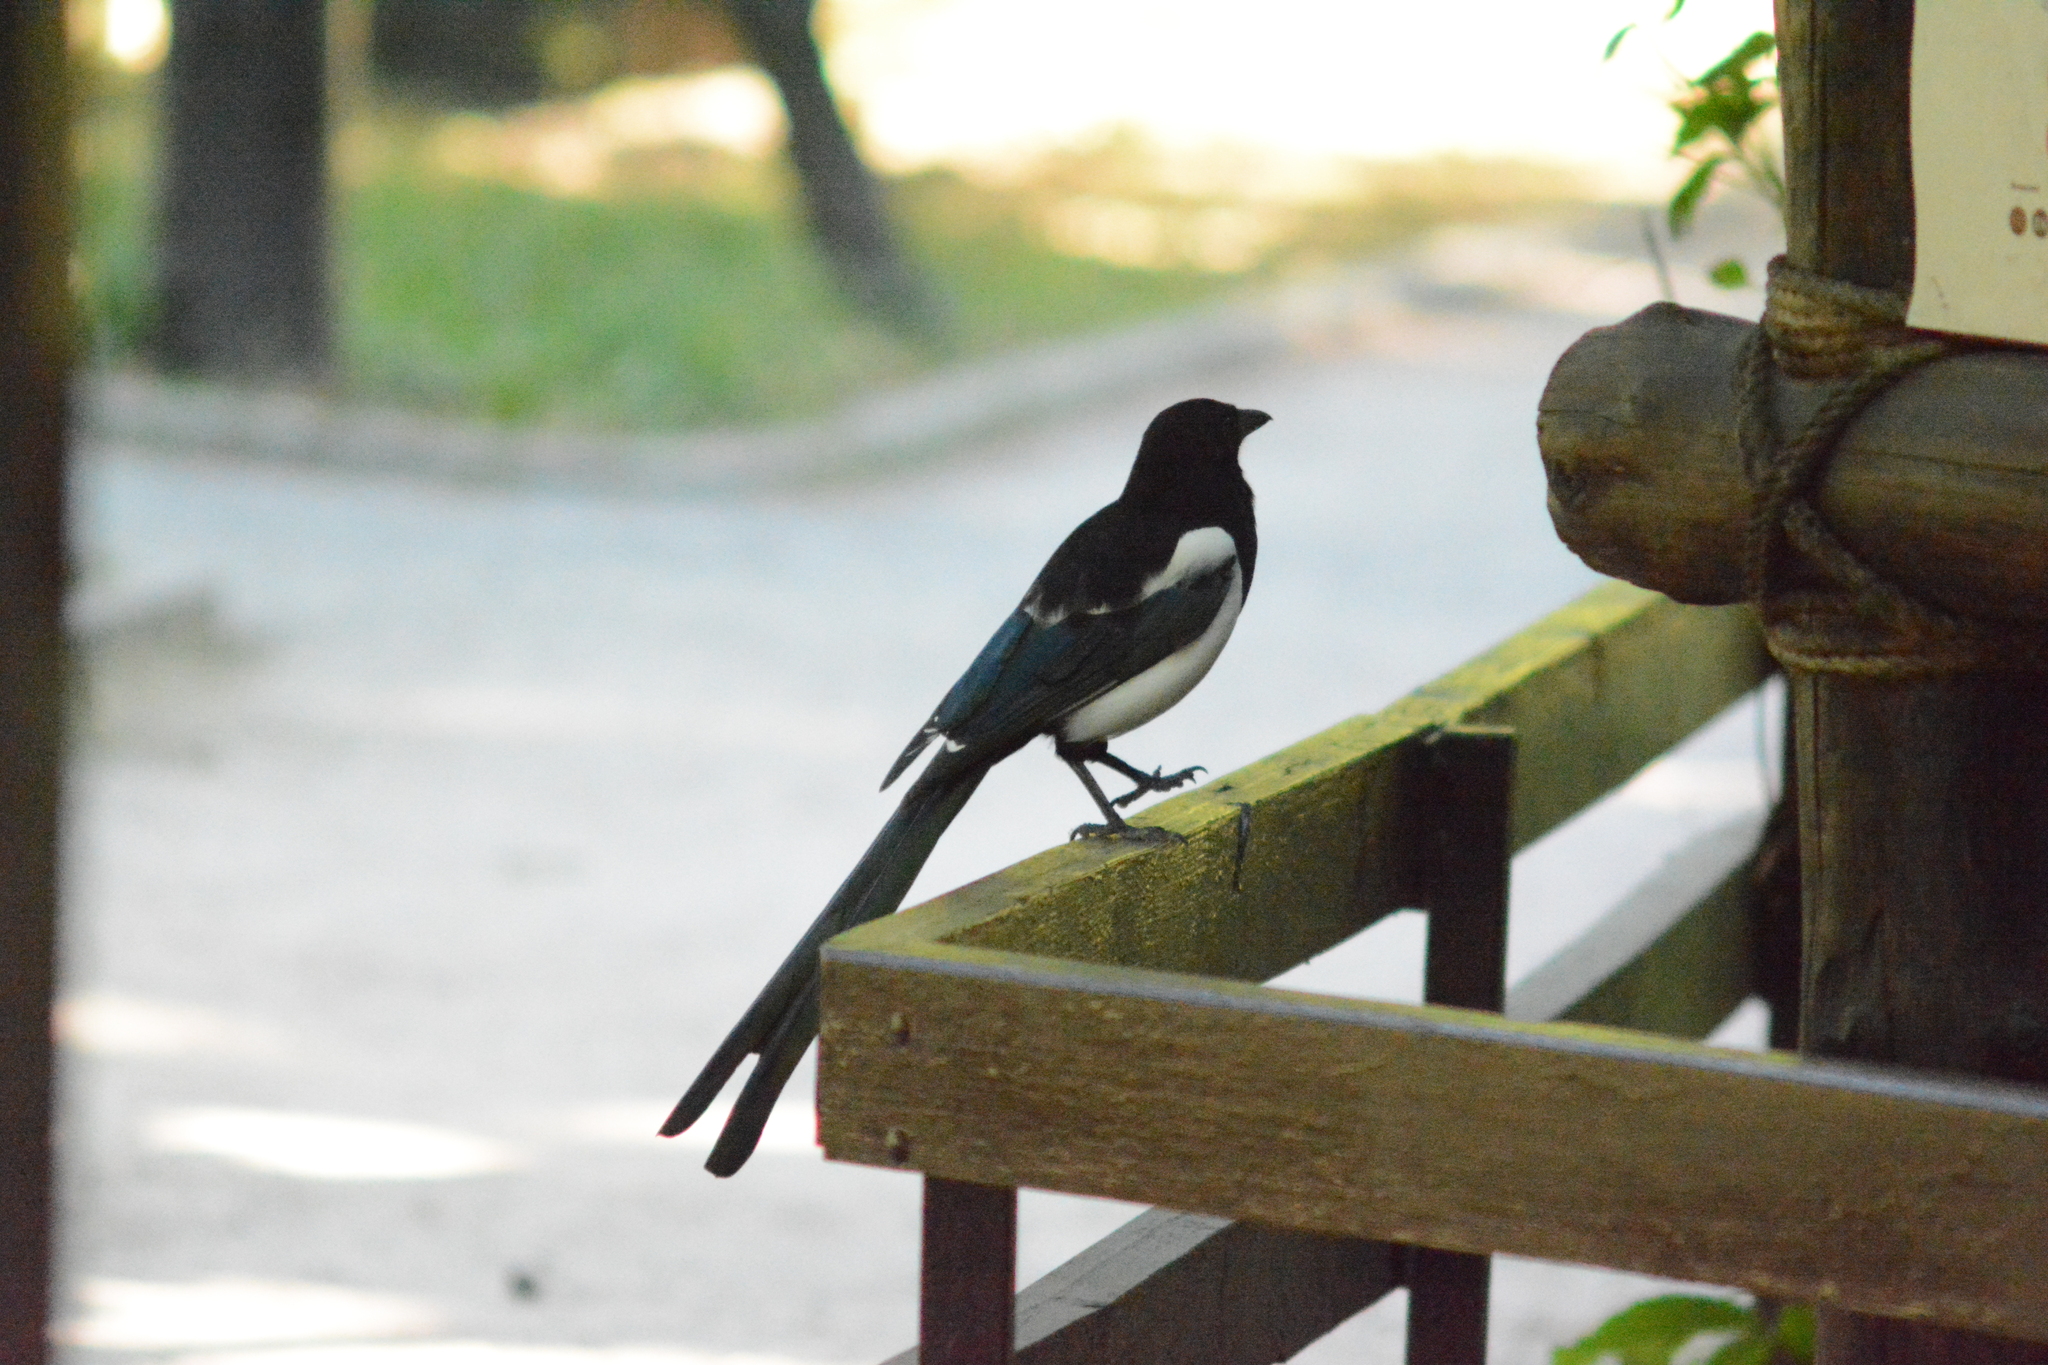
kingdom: Animalia
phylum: Chordata
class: Aves
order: Passeriformes
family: Corvidae
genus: Pica
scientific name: Pica pica
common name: Eurasian magpie
